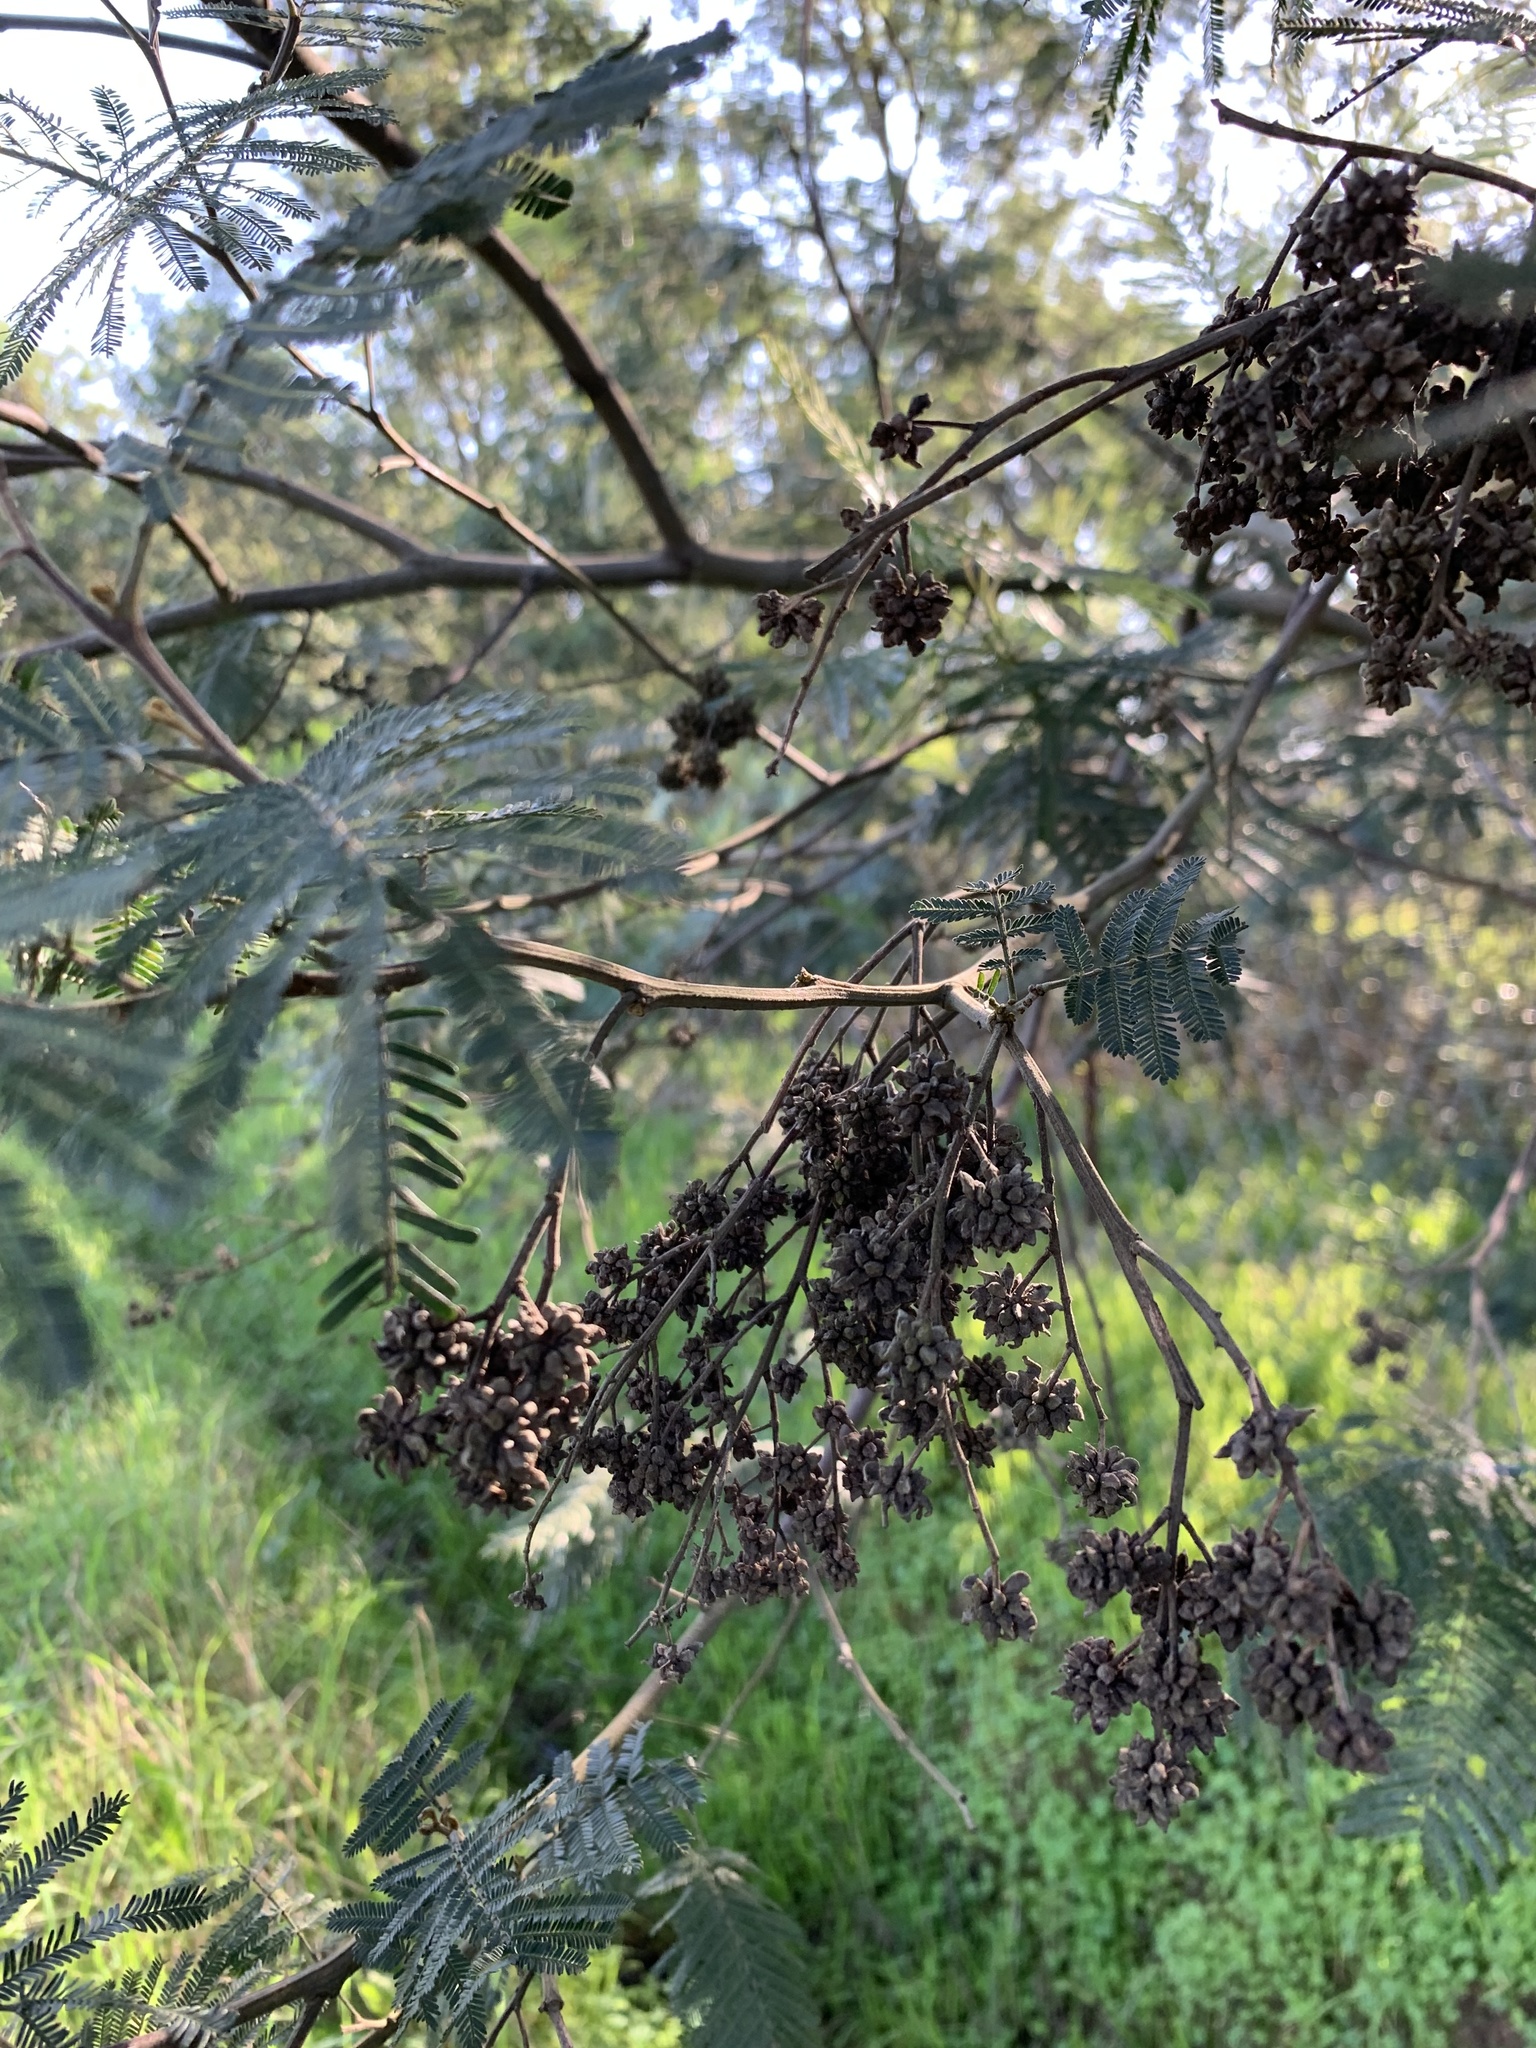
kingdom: Plantae
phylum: Tracheophyta
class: Magnoliopsida
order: Fabales
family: Fabaceae
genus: Acacia
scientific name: Acacia mearnsii
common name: Black wattle
